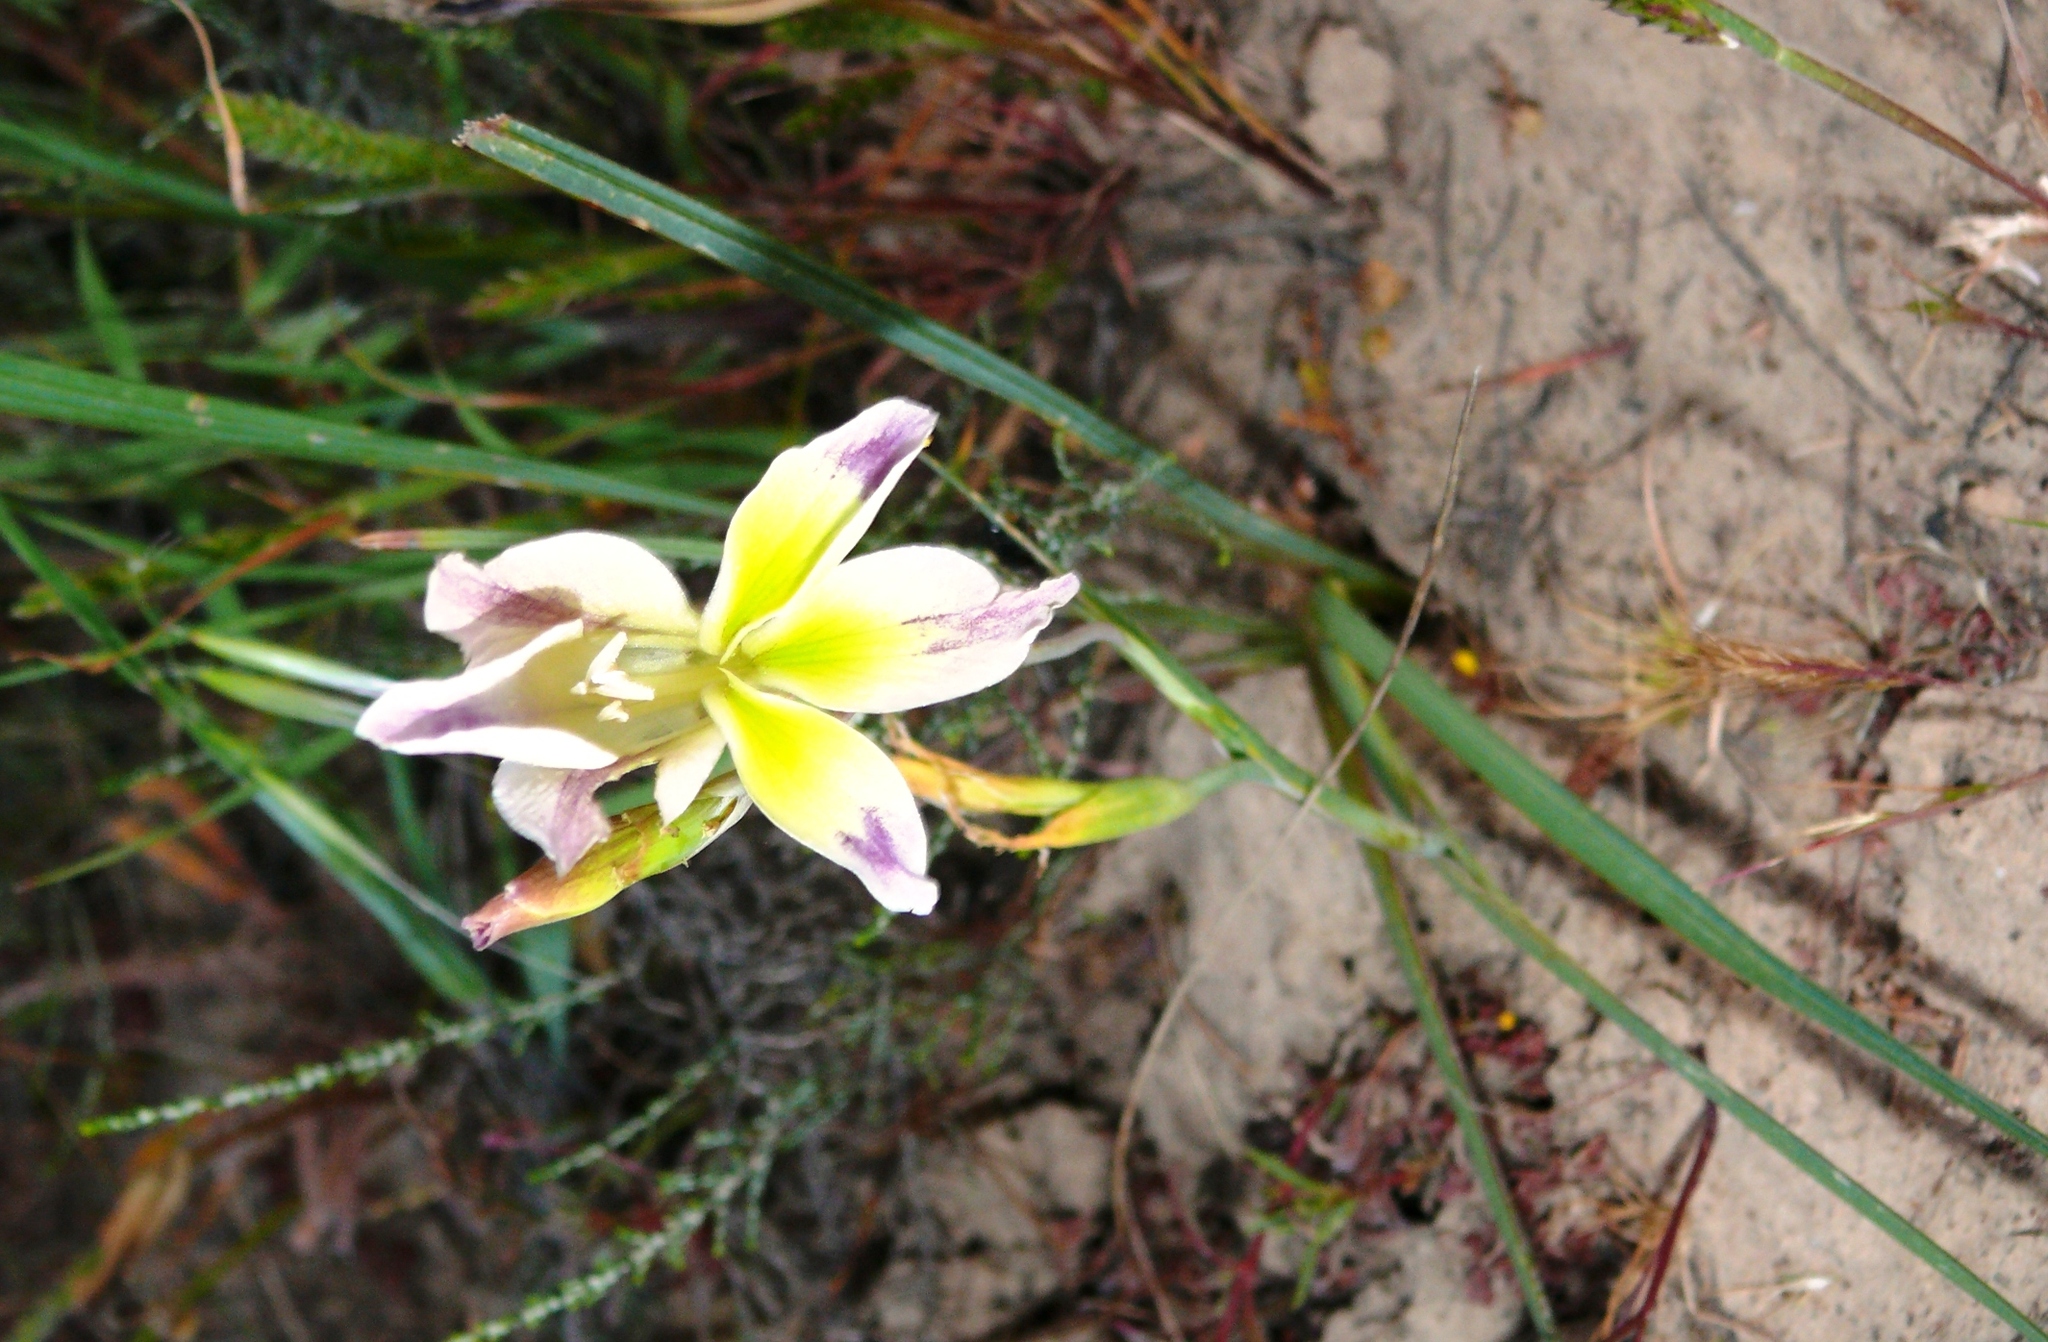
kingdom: Plantae
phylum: Tracheophyta
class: Liliopsida
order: Asparagales
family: Iridaceae
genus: Gladiolus
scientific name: Gladiolus scullyi
